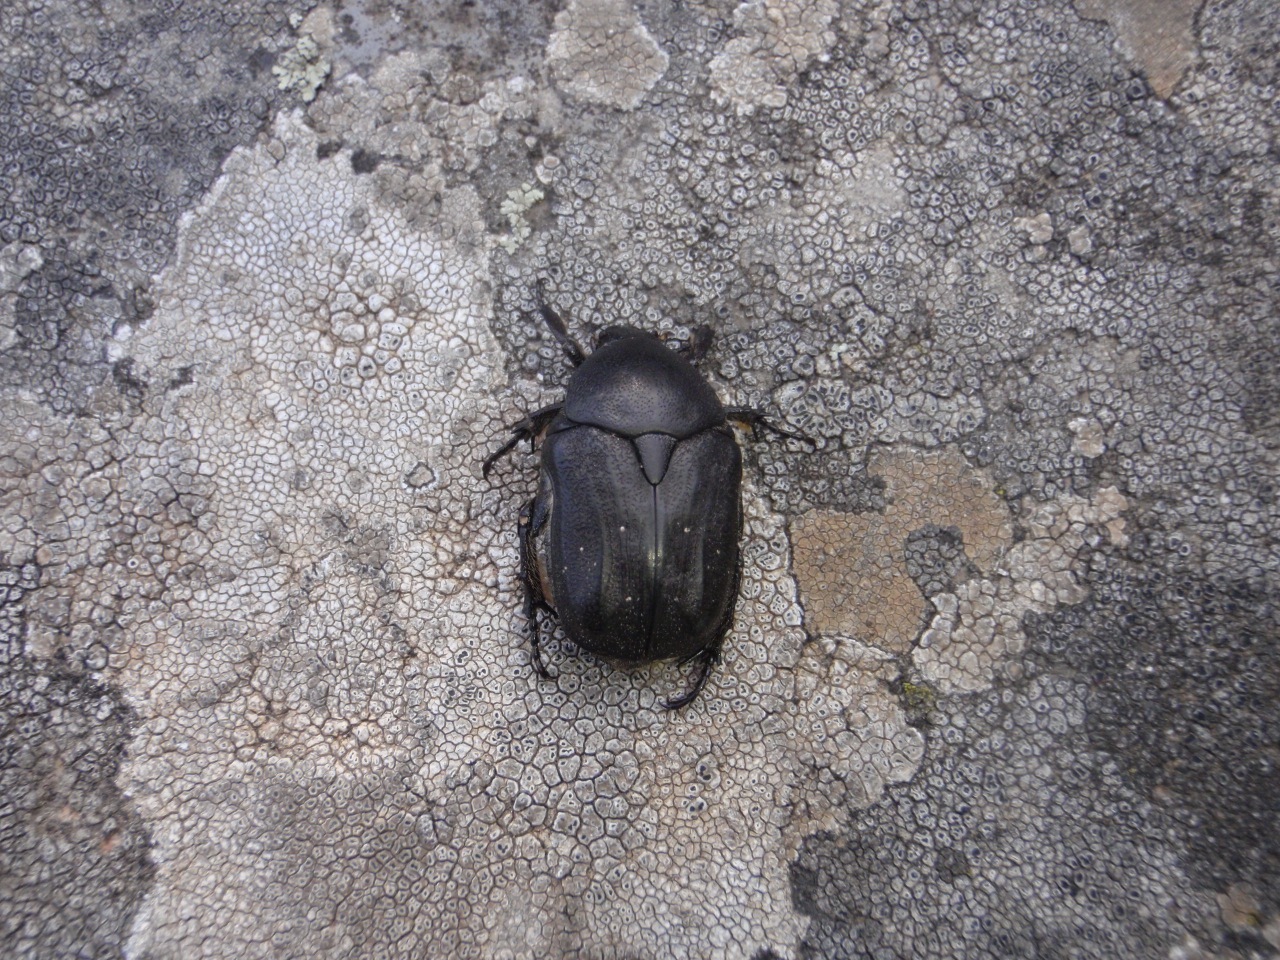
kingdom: Animalia
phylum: Arthropoda
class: Insecta
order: Coleoptera
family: Scarabaeidae
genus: Protaetia
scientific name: Protaetia morio
